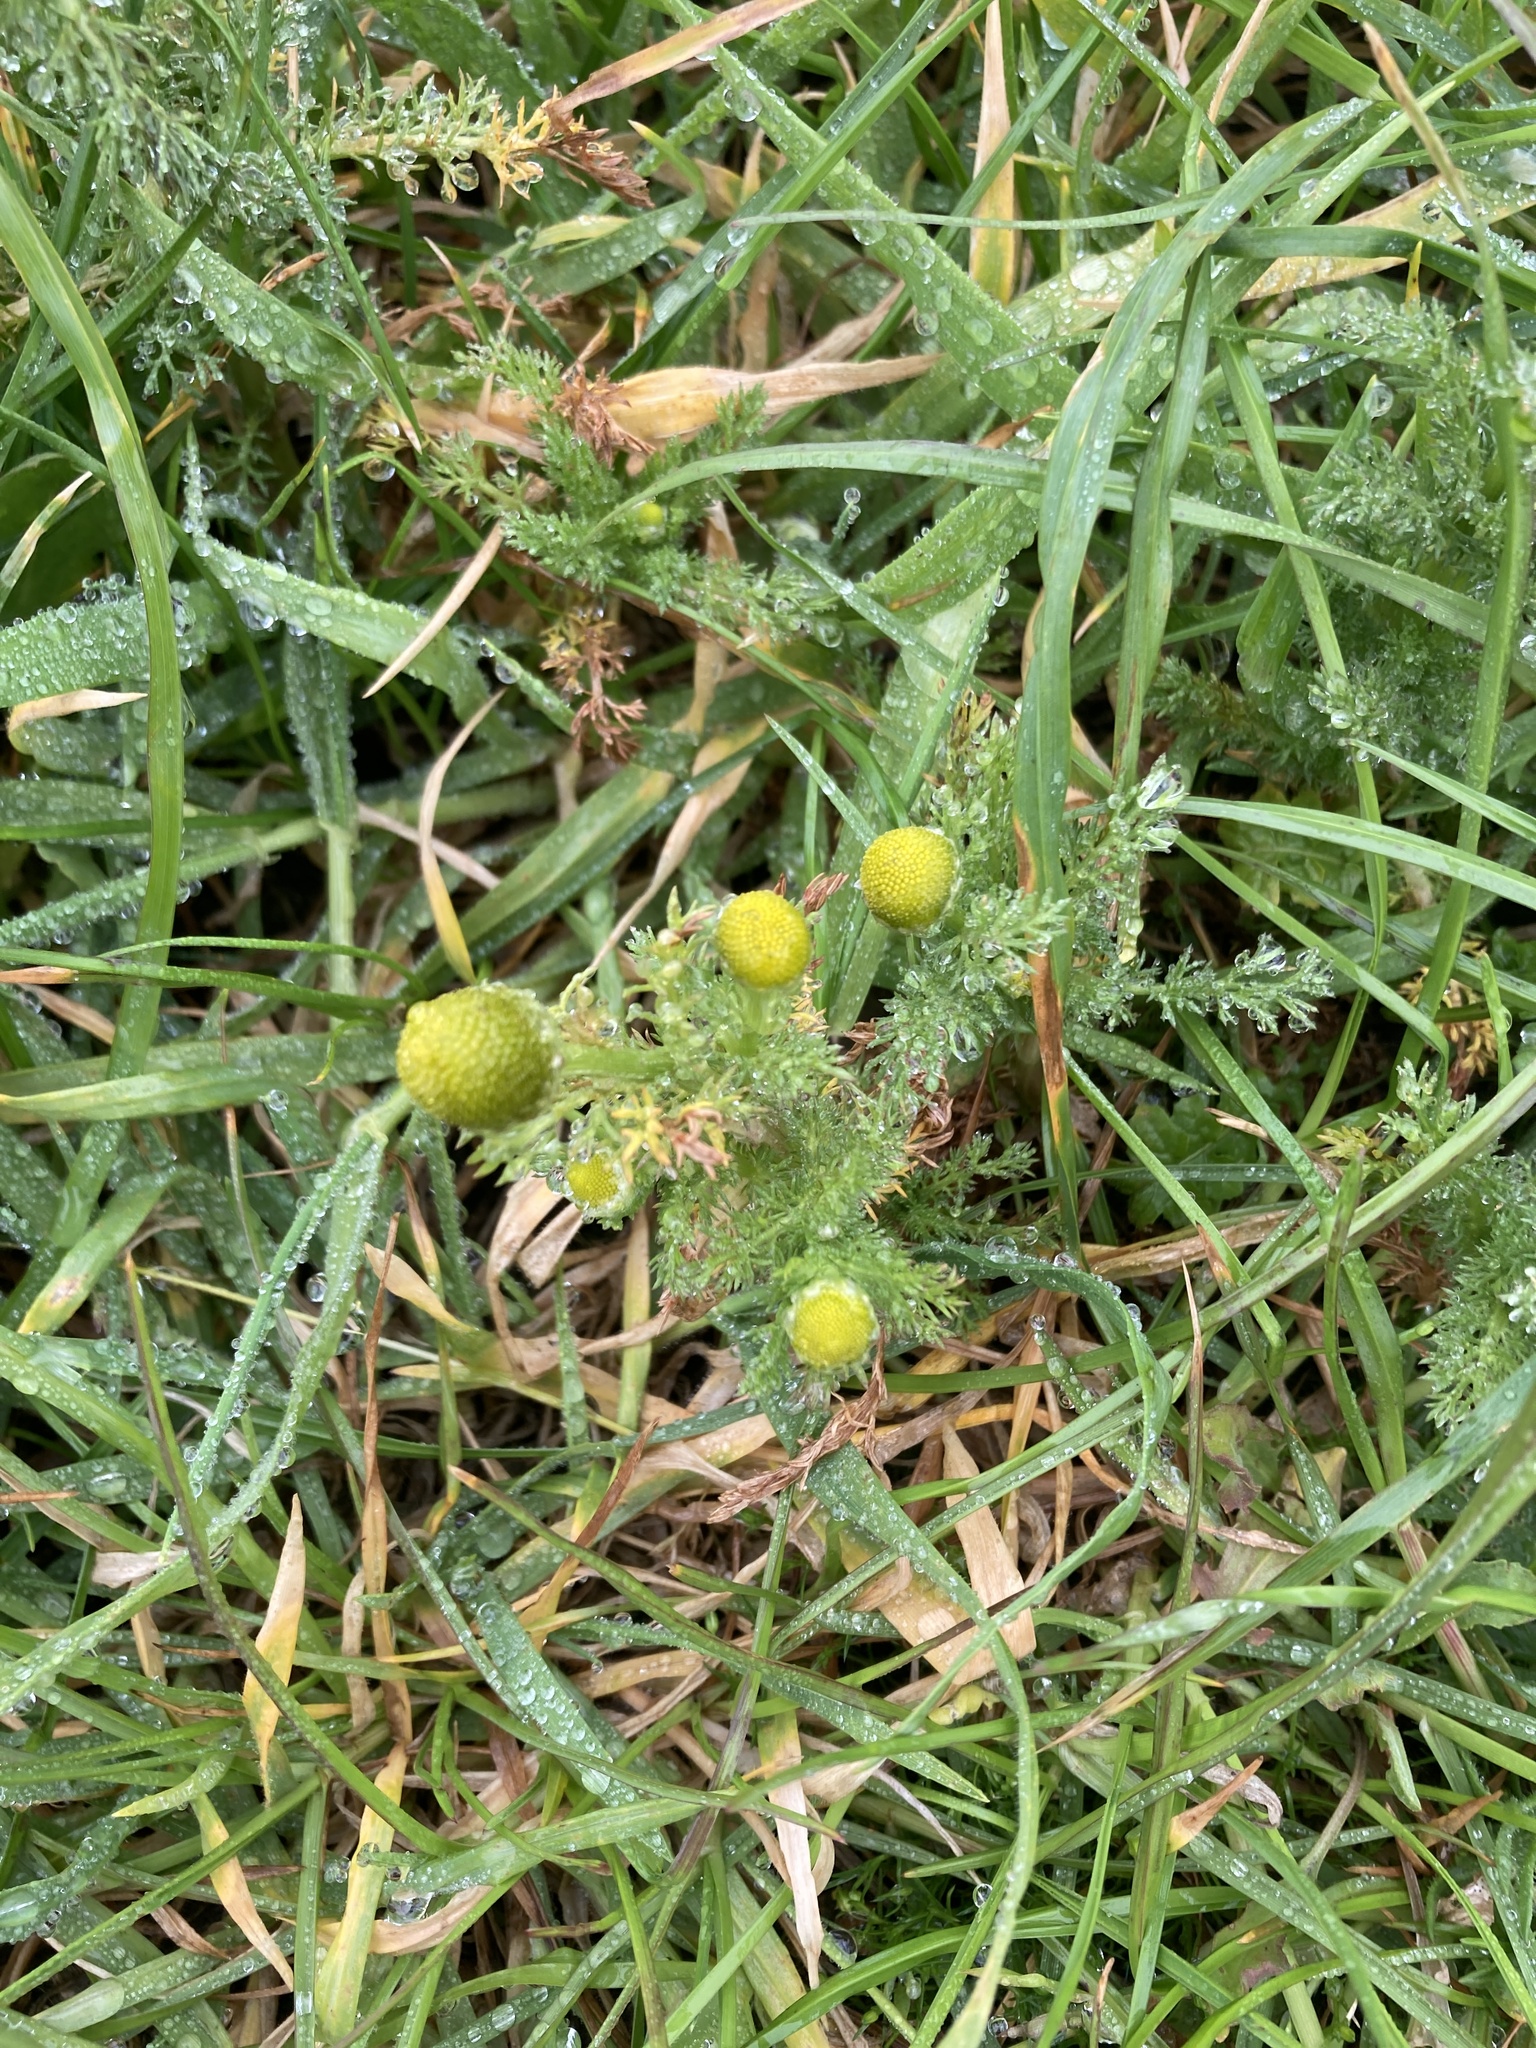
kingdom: Plantae
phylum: Tracheophyta
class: Magnoliopsida
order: Asterales
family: Asteraceae
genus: Matricaria
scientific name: Matricaria discoidea
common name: Disc mayweed
